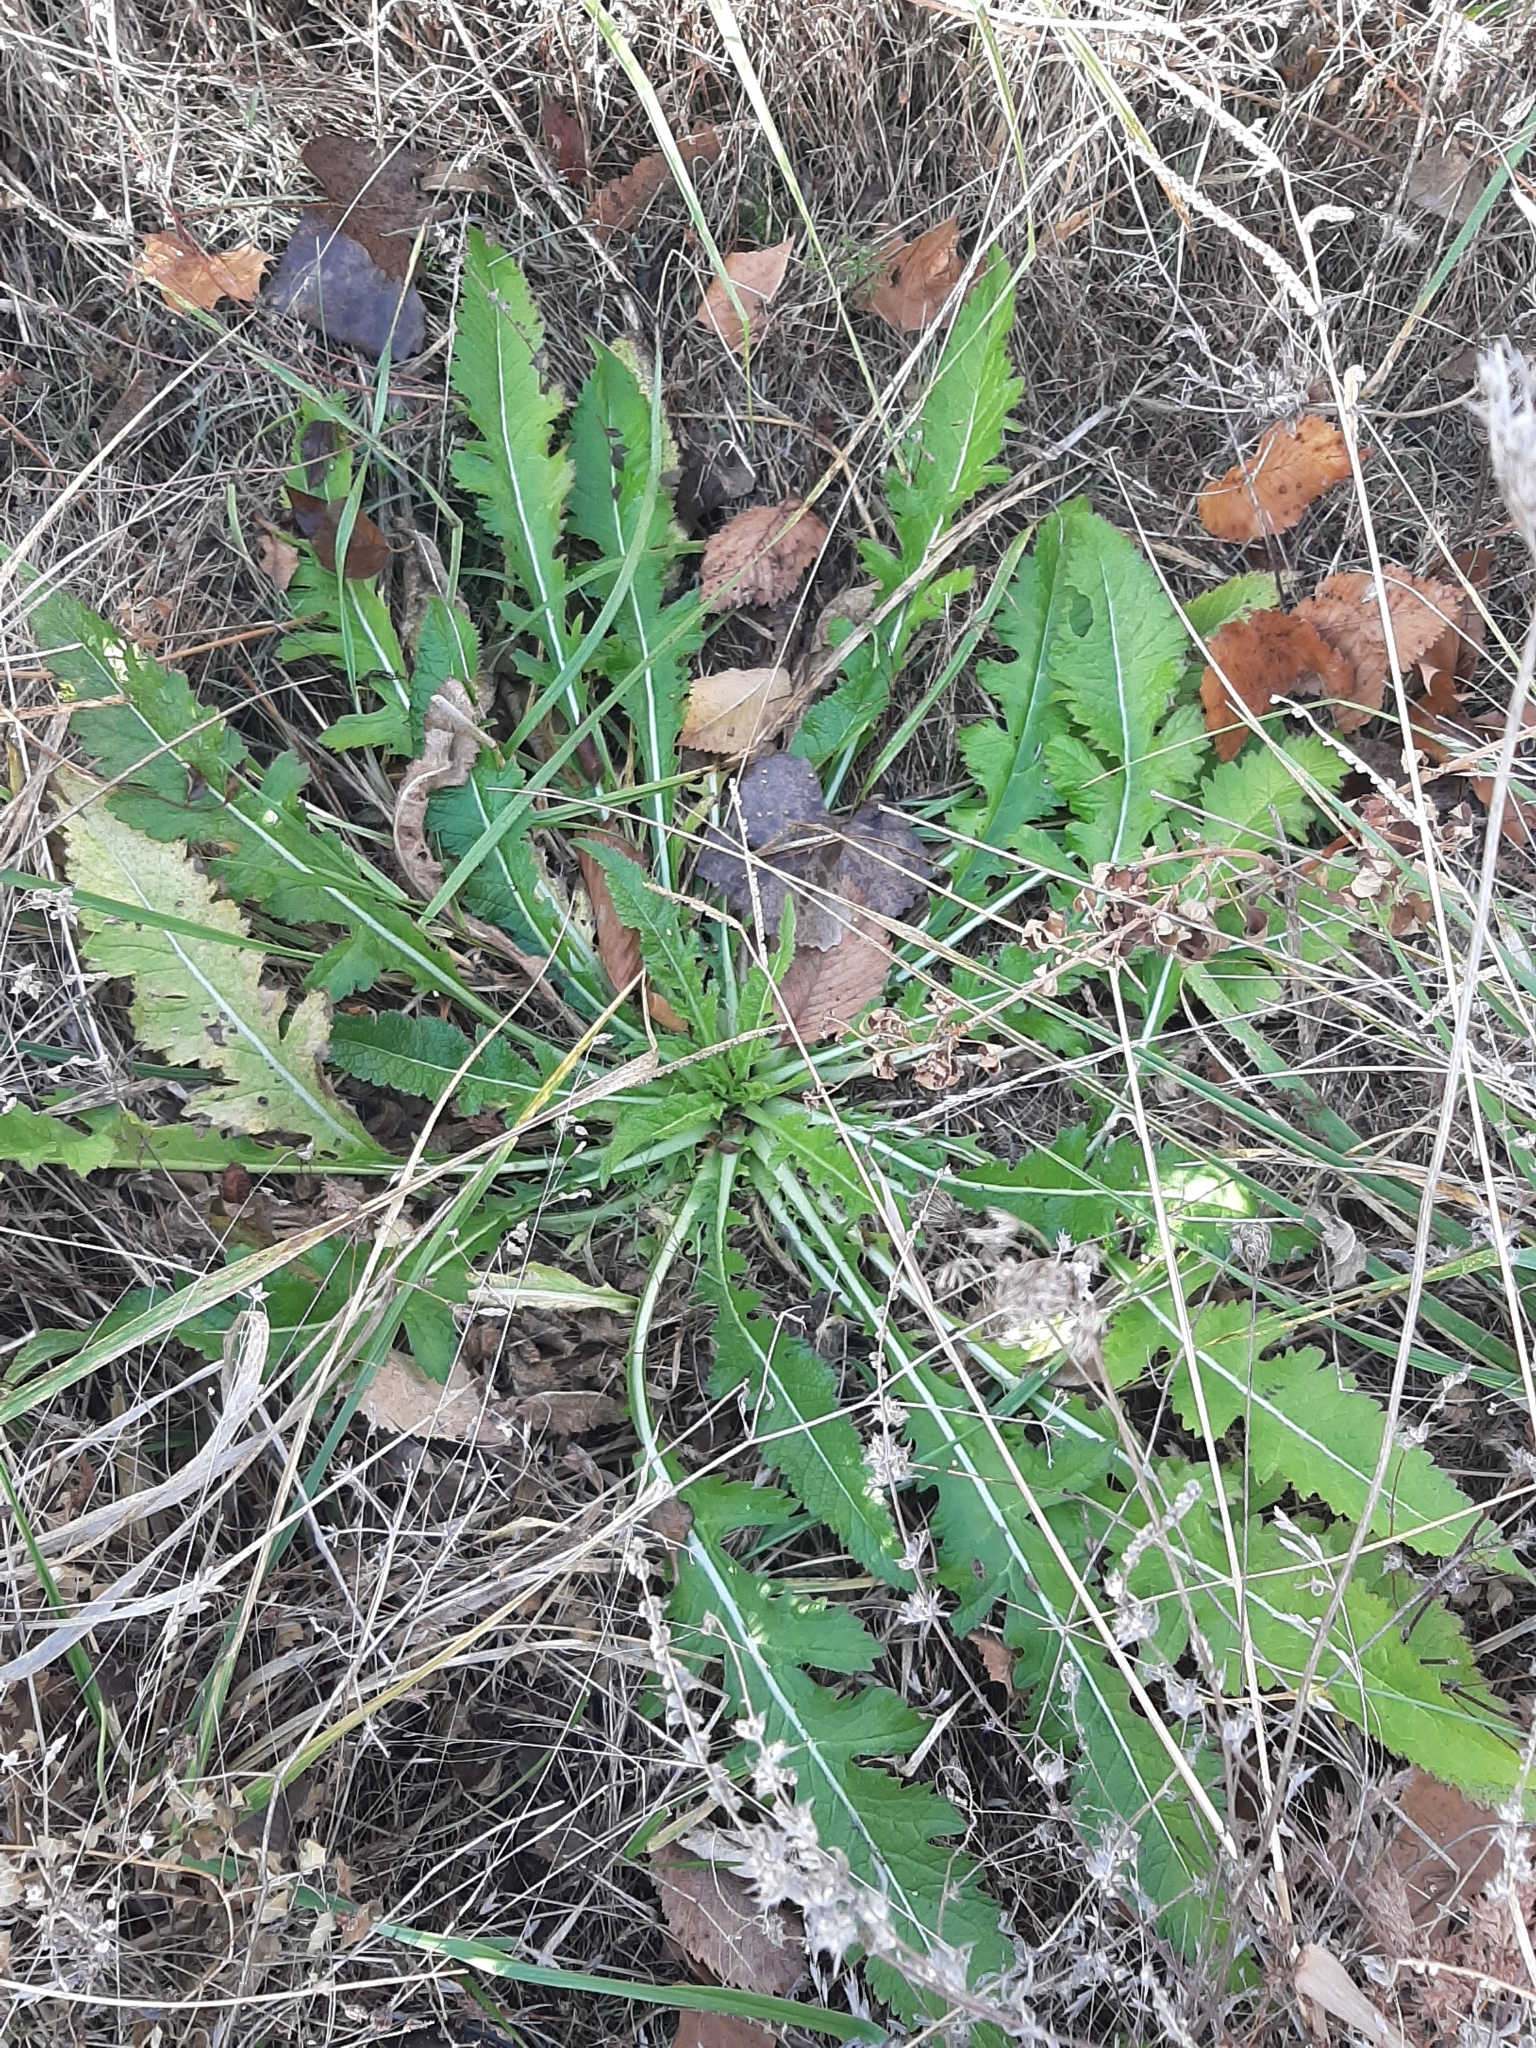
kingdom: Plantae
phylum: Tracheophyta
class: Magnoliopsida
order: Dipsacales
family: Caprifoliaceae
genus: Dipsacus
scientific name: Dipsacus laciniatus
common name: Cut-leaved teasel
